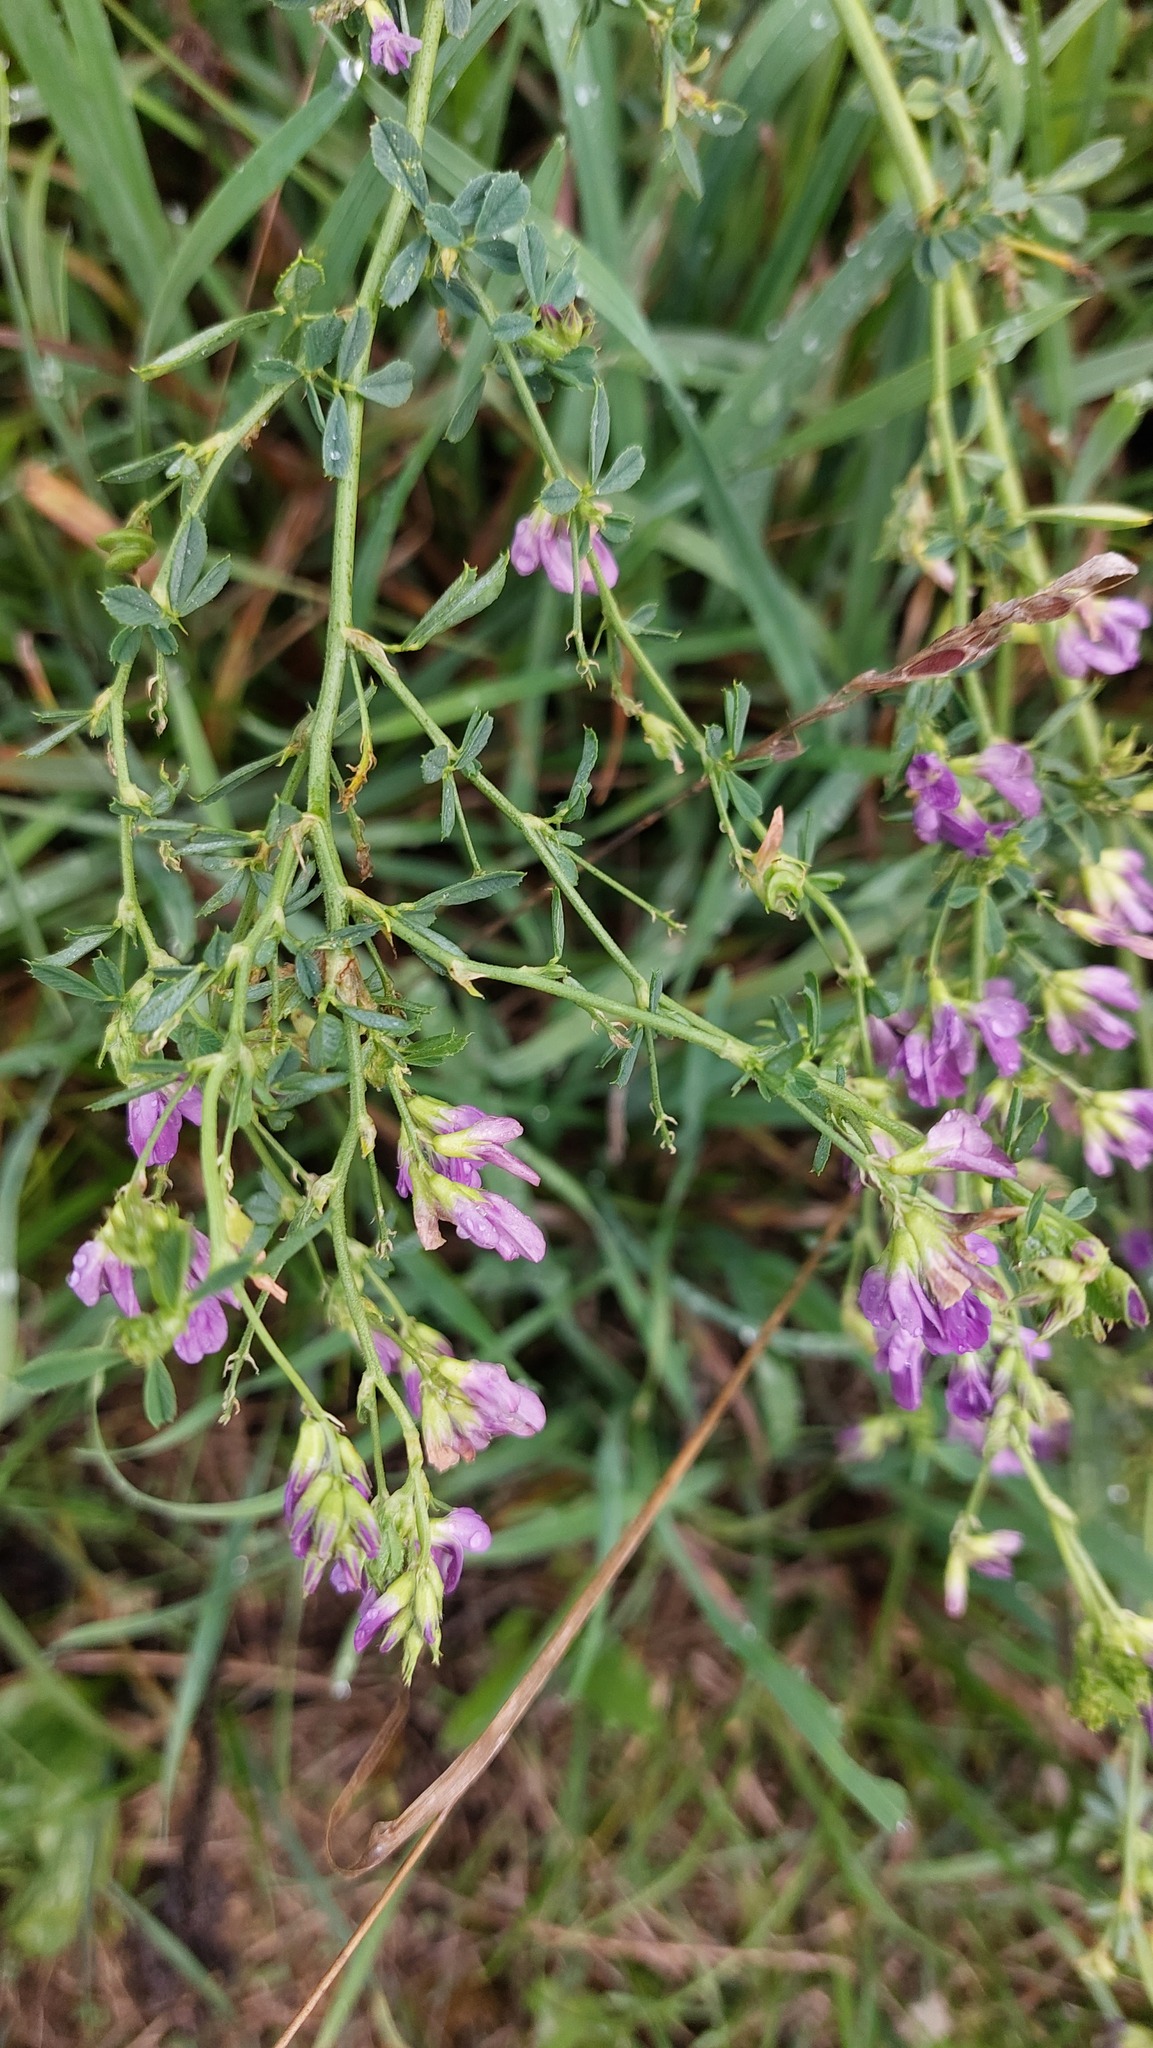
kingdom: Plantae
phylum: Tracheophyta
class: Magnoliopsida
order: Fabales
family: Fabaceae
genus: Medicago
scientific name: Medicago sativa
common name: Alfalfa
